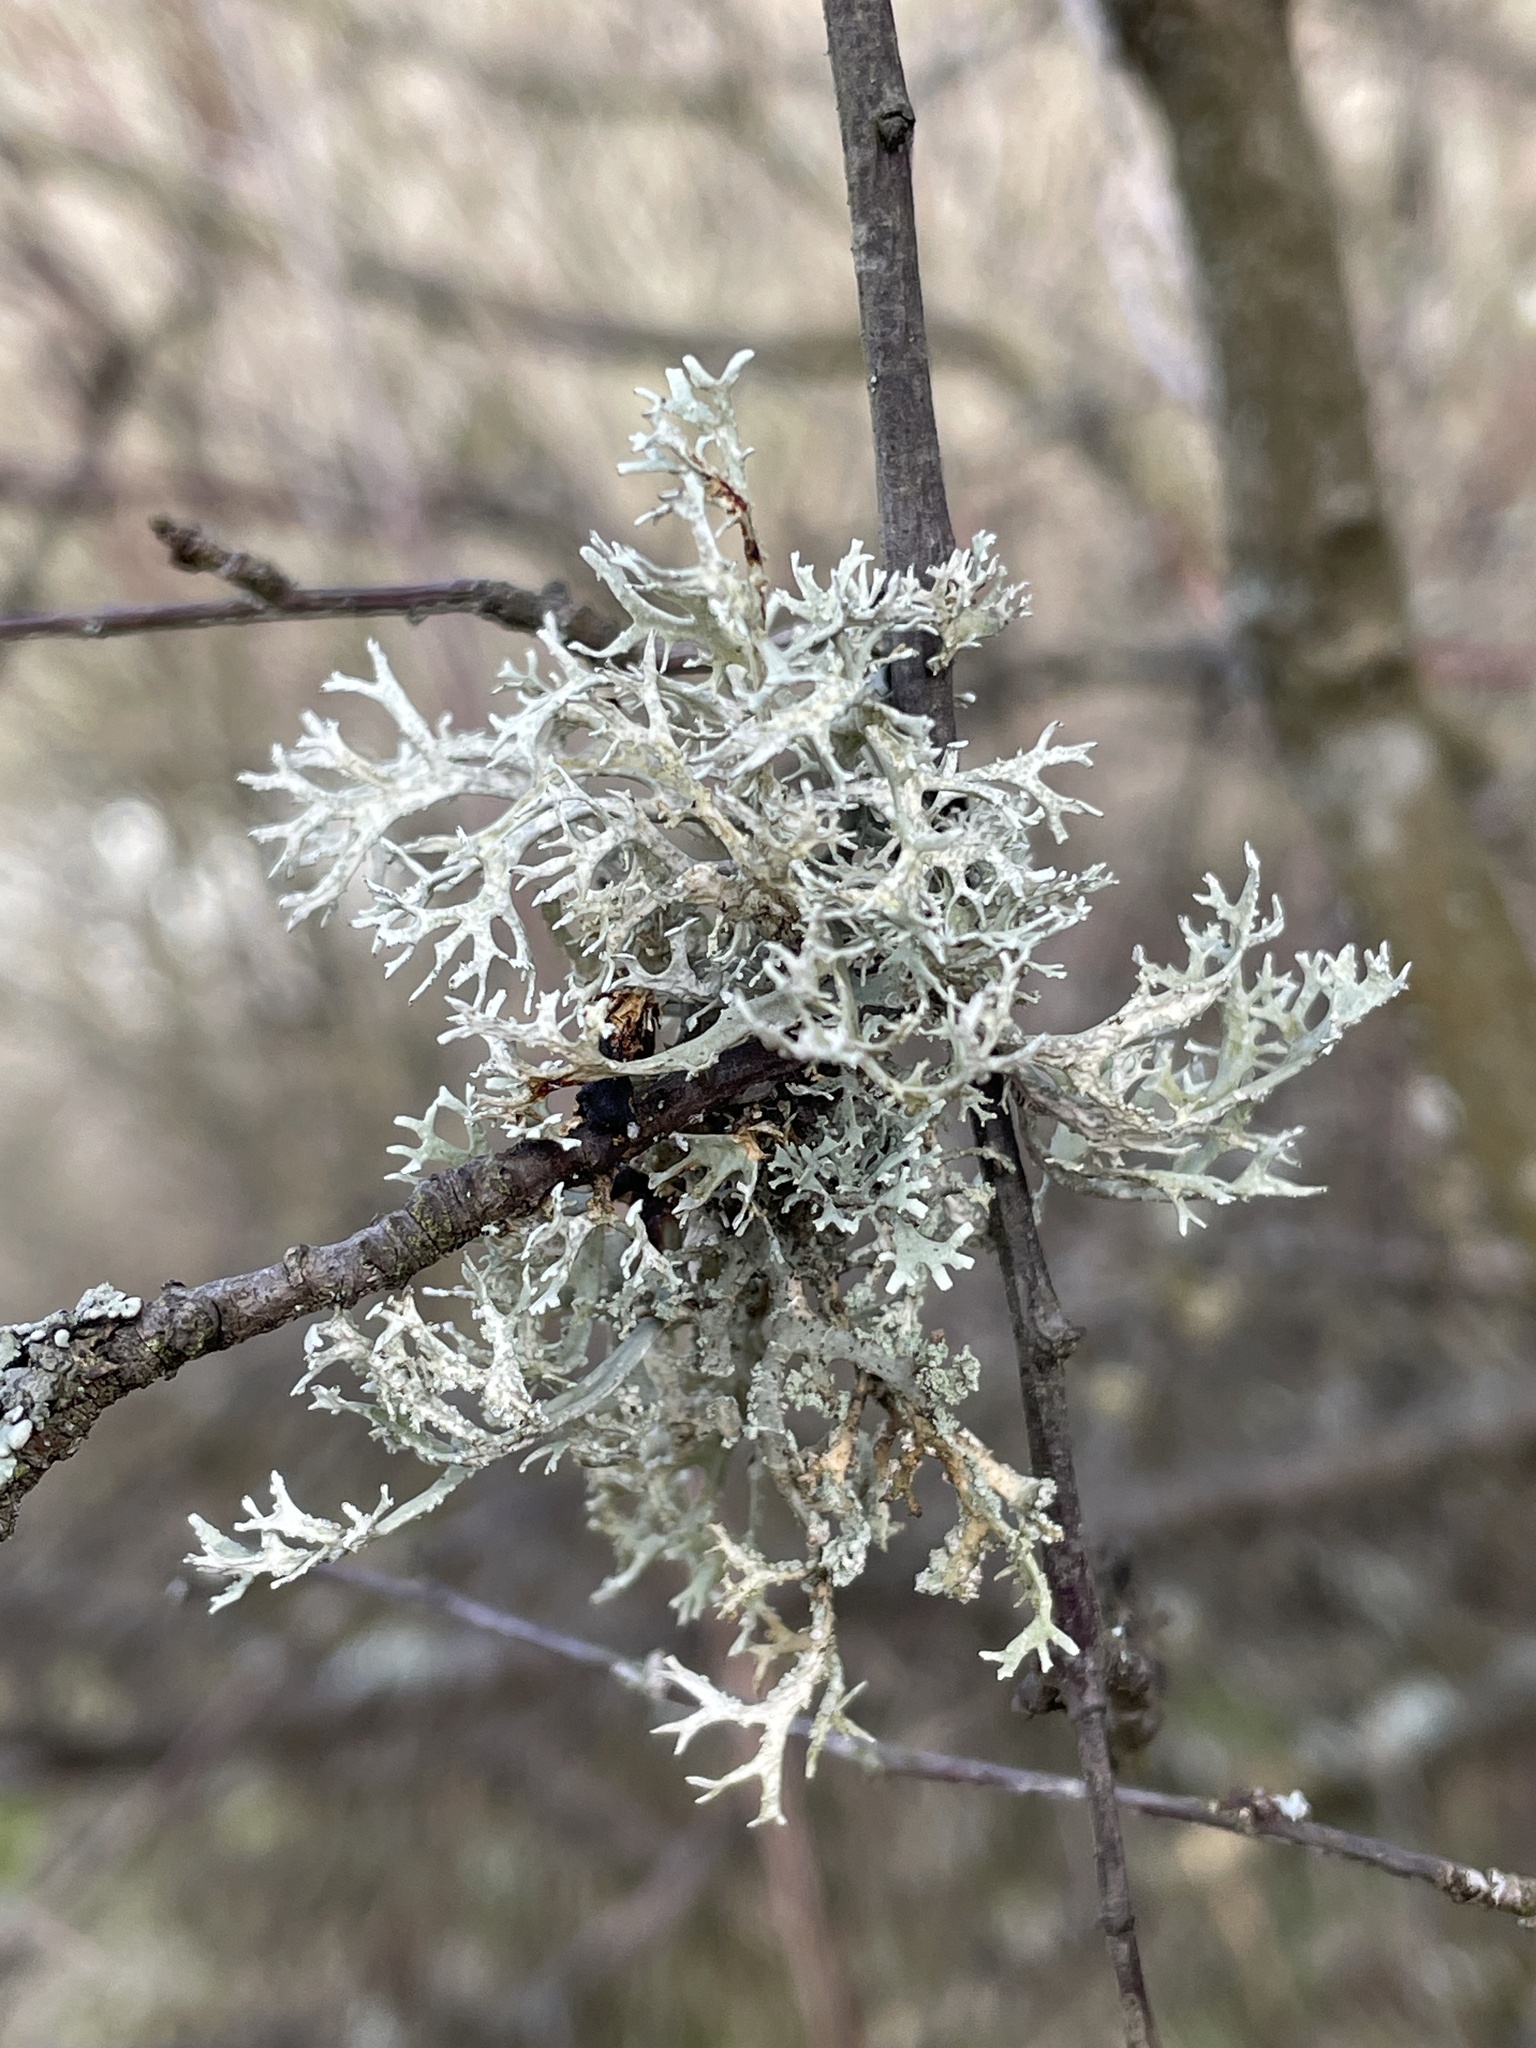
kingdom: Fungi
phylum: Ascomycota
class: Lecanoromycetes
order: Lecanorales
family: Parmeliaceae
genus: Evernia
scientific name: Evernia prunastri
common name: Oak moss
